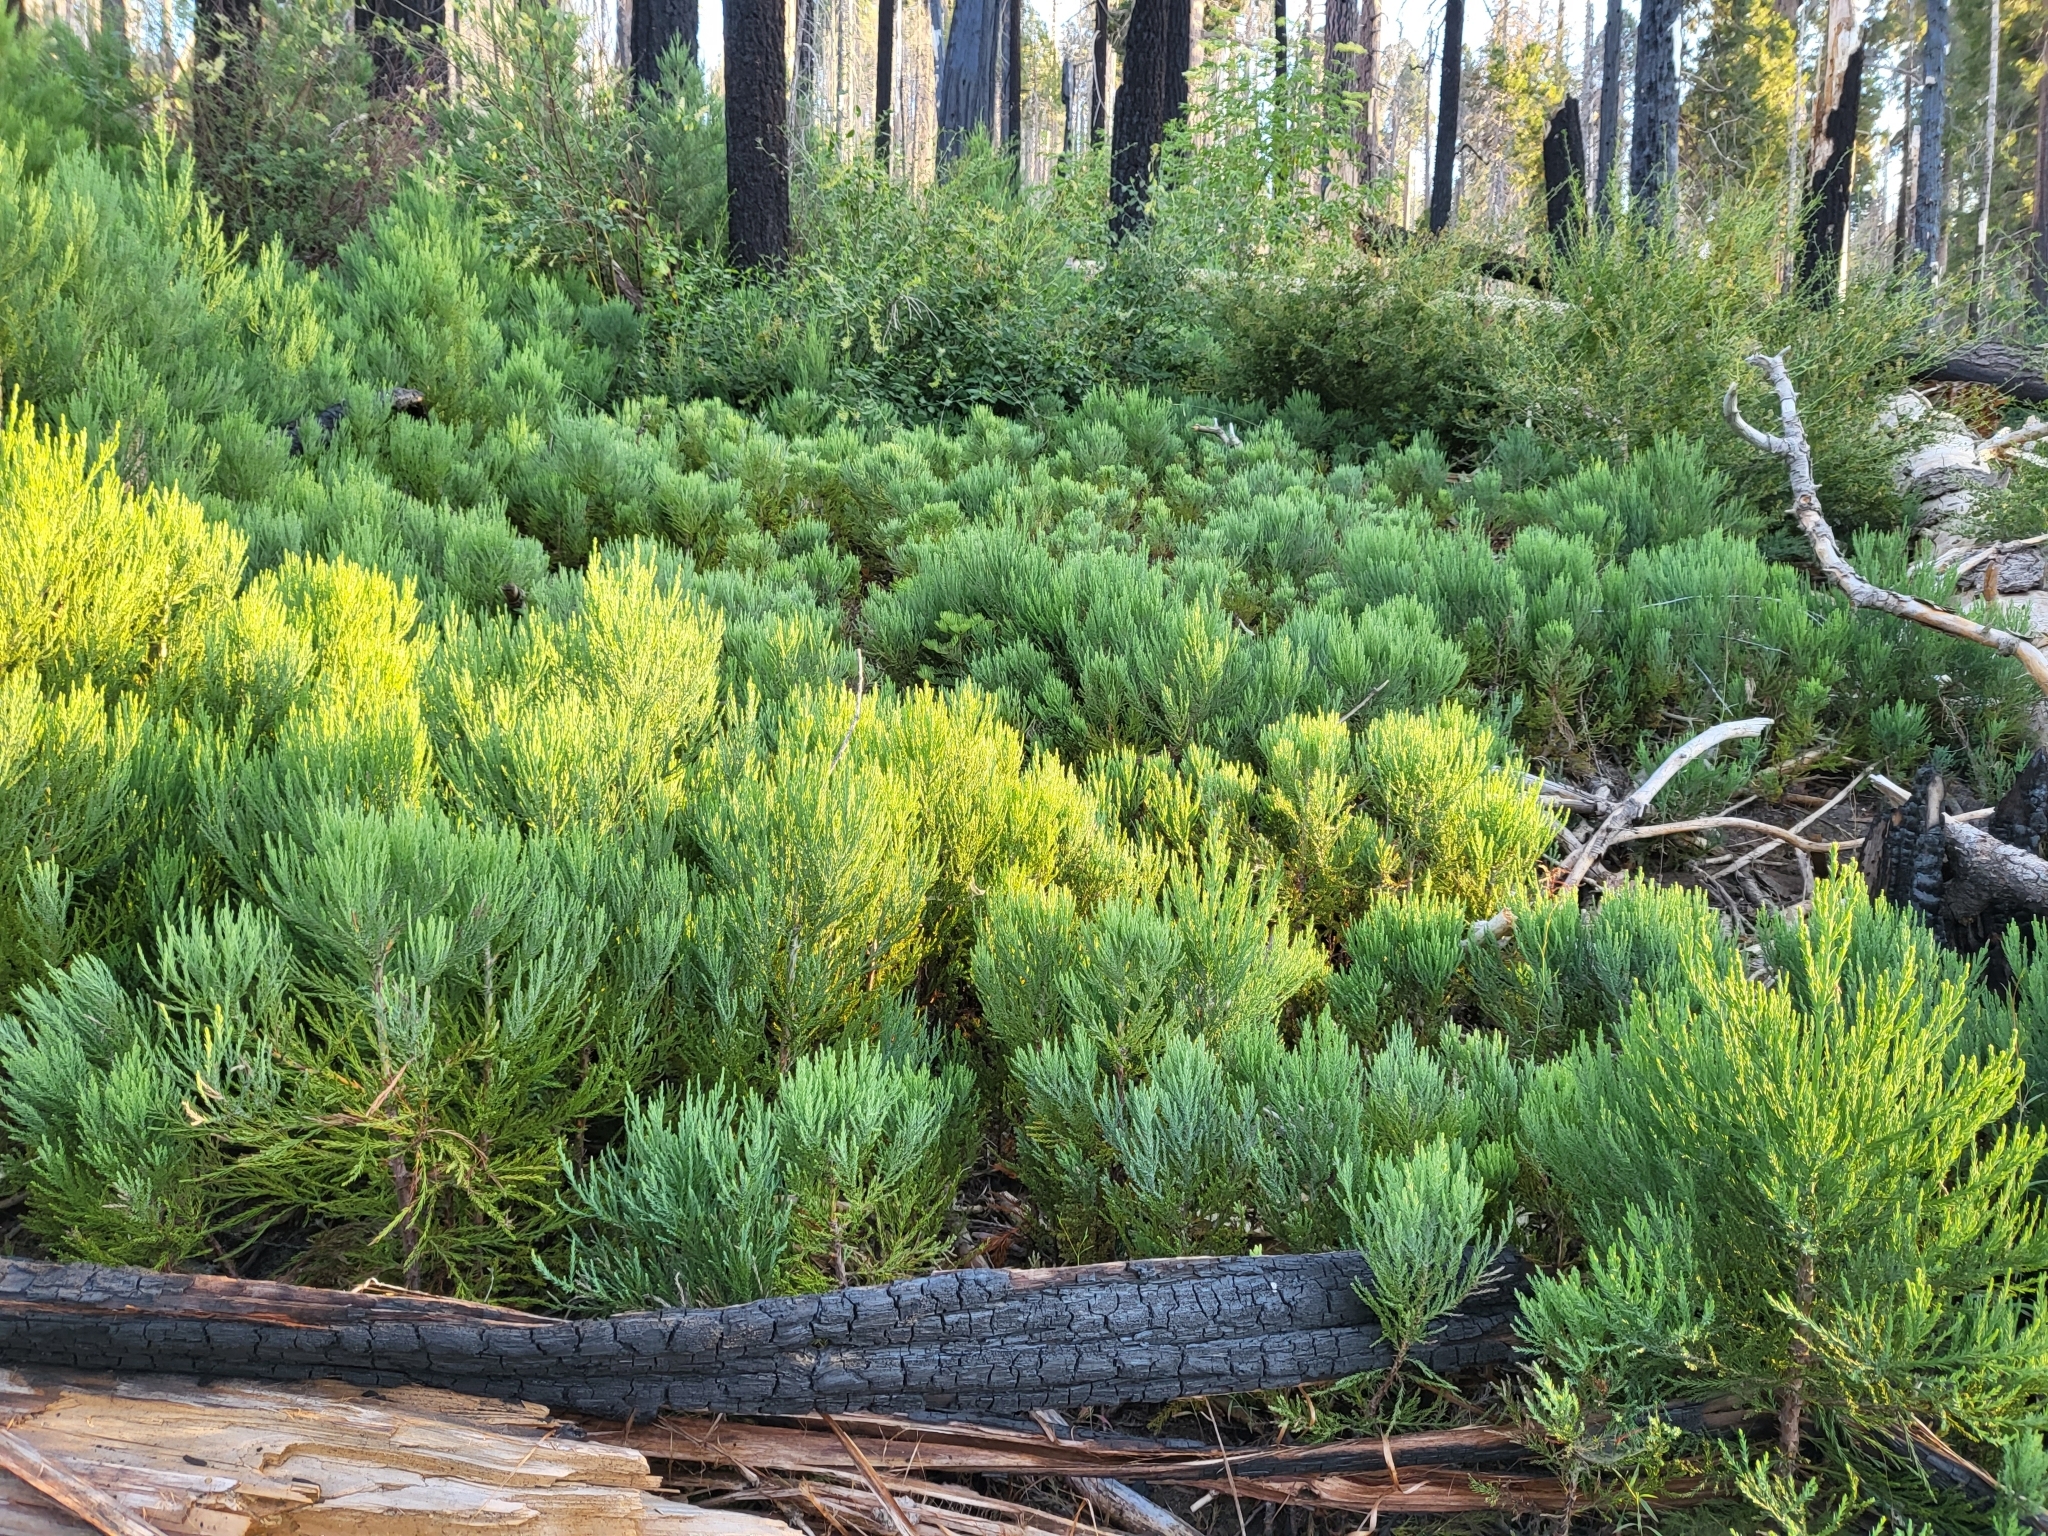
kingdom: Plantae
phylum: Tracheophyta
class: Pinopsida
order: Pinales
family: Cupressaceae
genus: Sequoiadendron
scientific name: Sequoiadendron giganteum
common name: Wellingtonia
